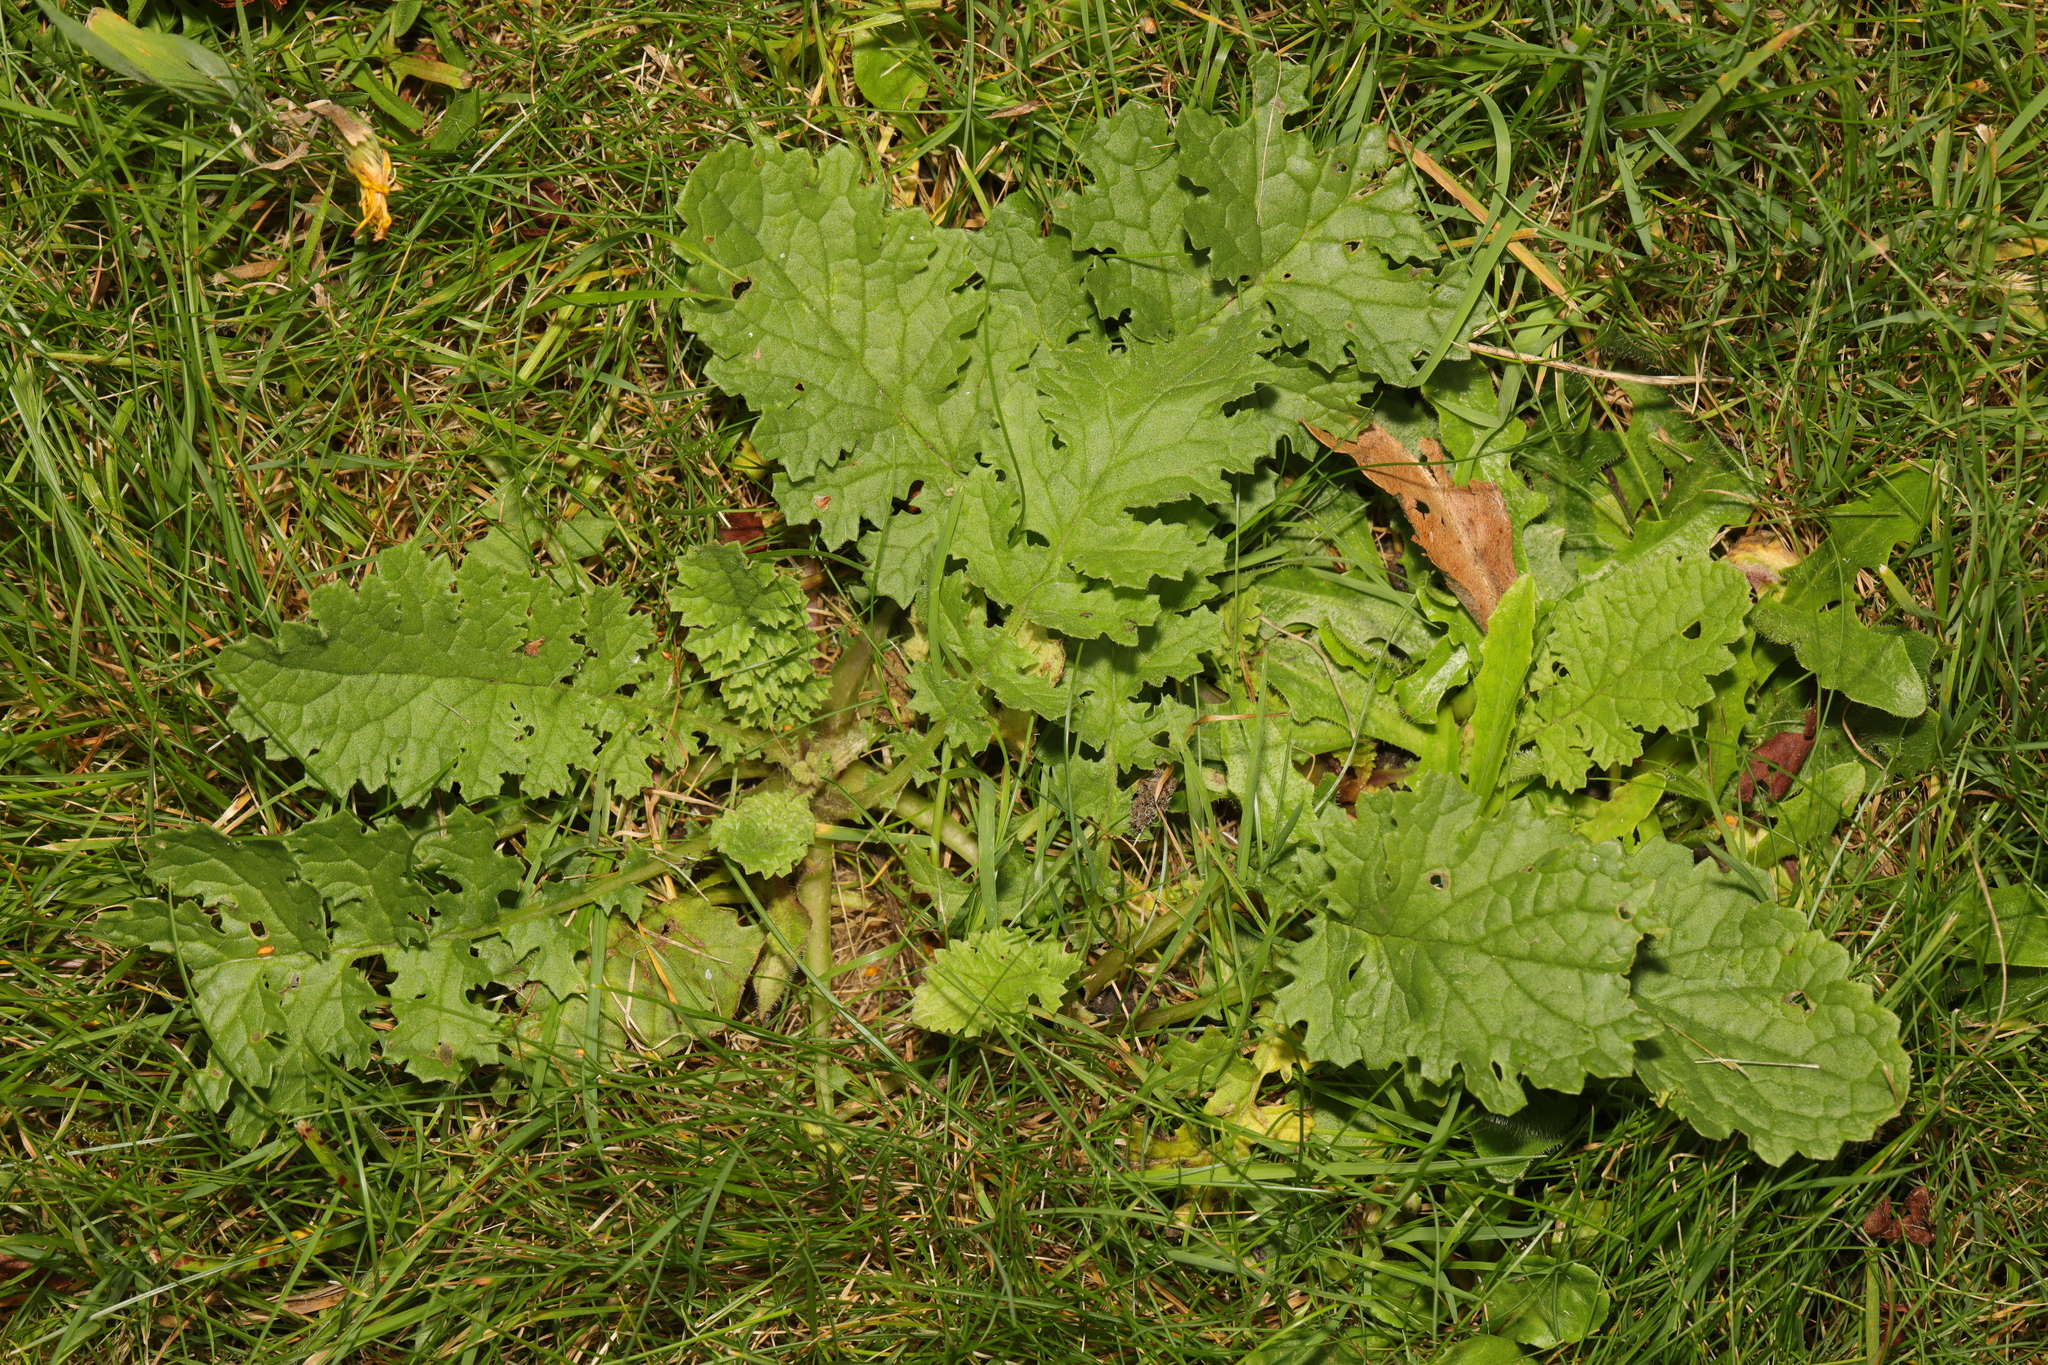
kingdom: Plantae
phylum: Tracheophyta
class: Magnoliopsida
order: Asterales
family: Asteraceae
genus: Jacobaea
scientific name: Jacobaea vulgaris
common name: Stinking willie
